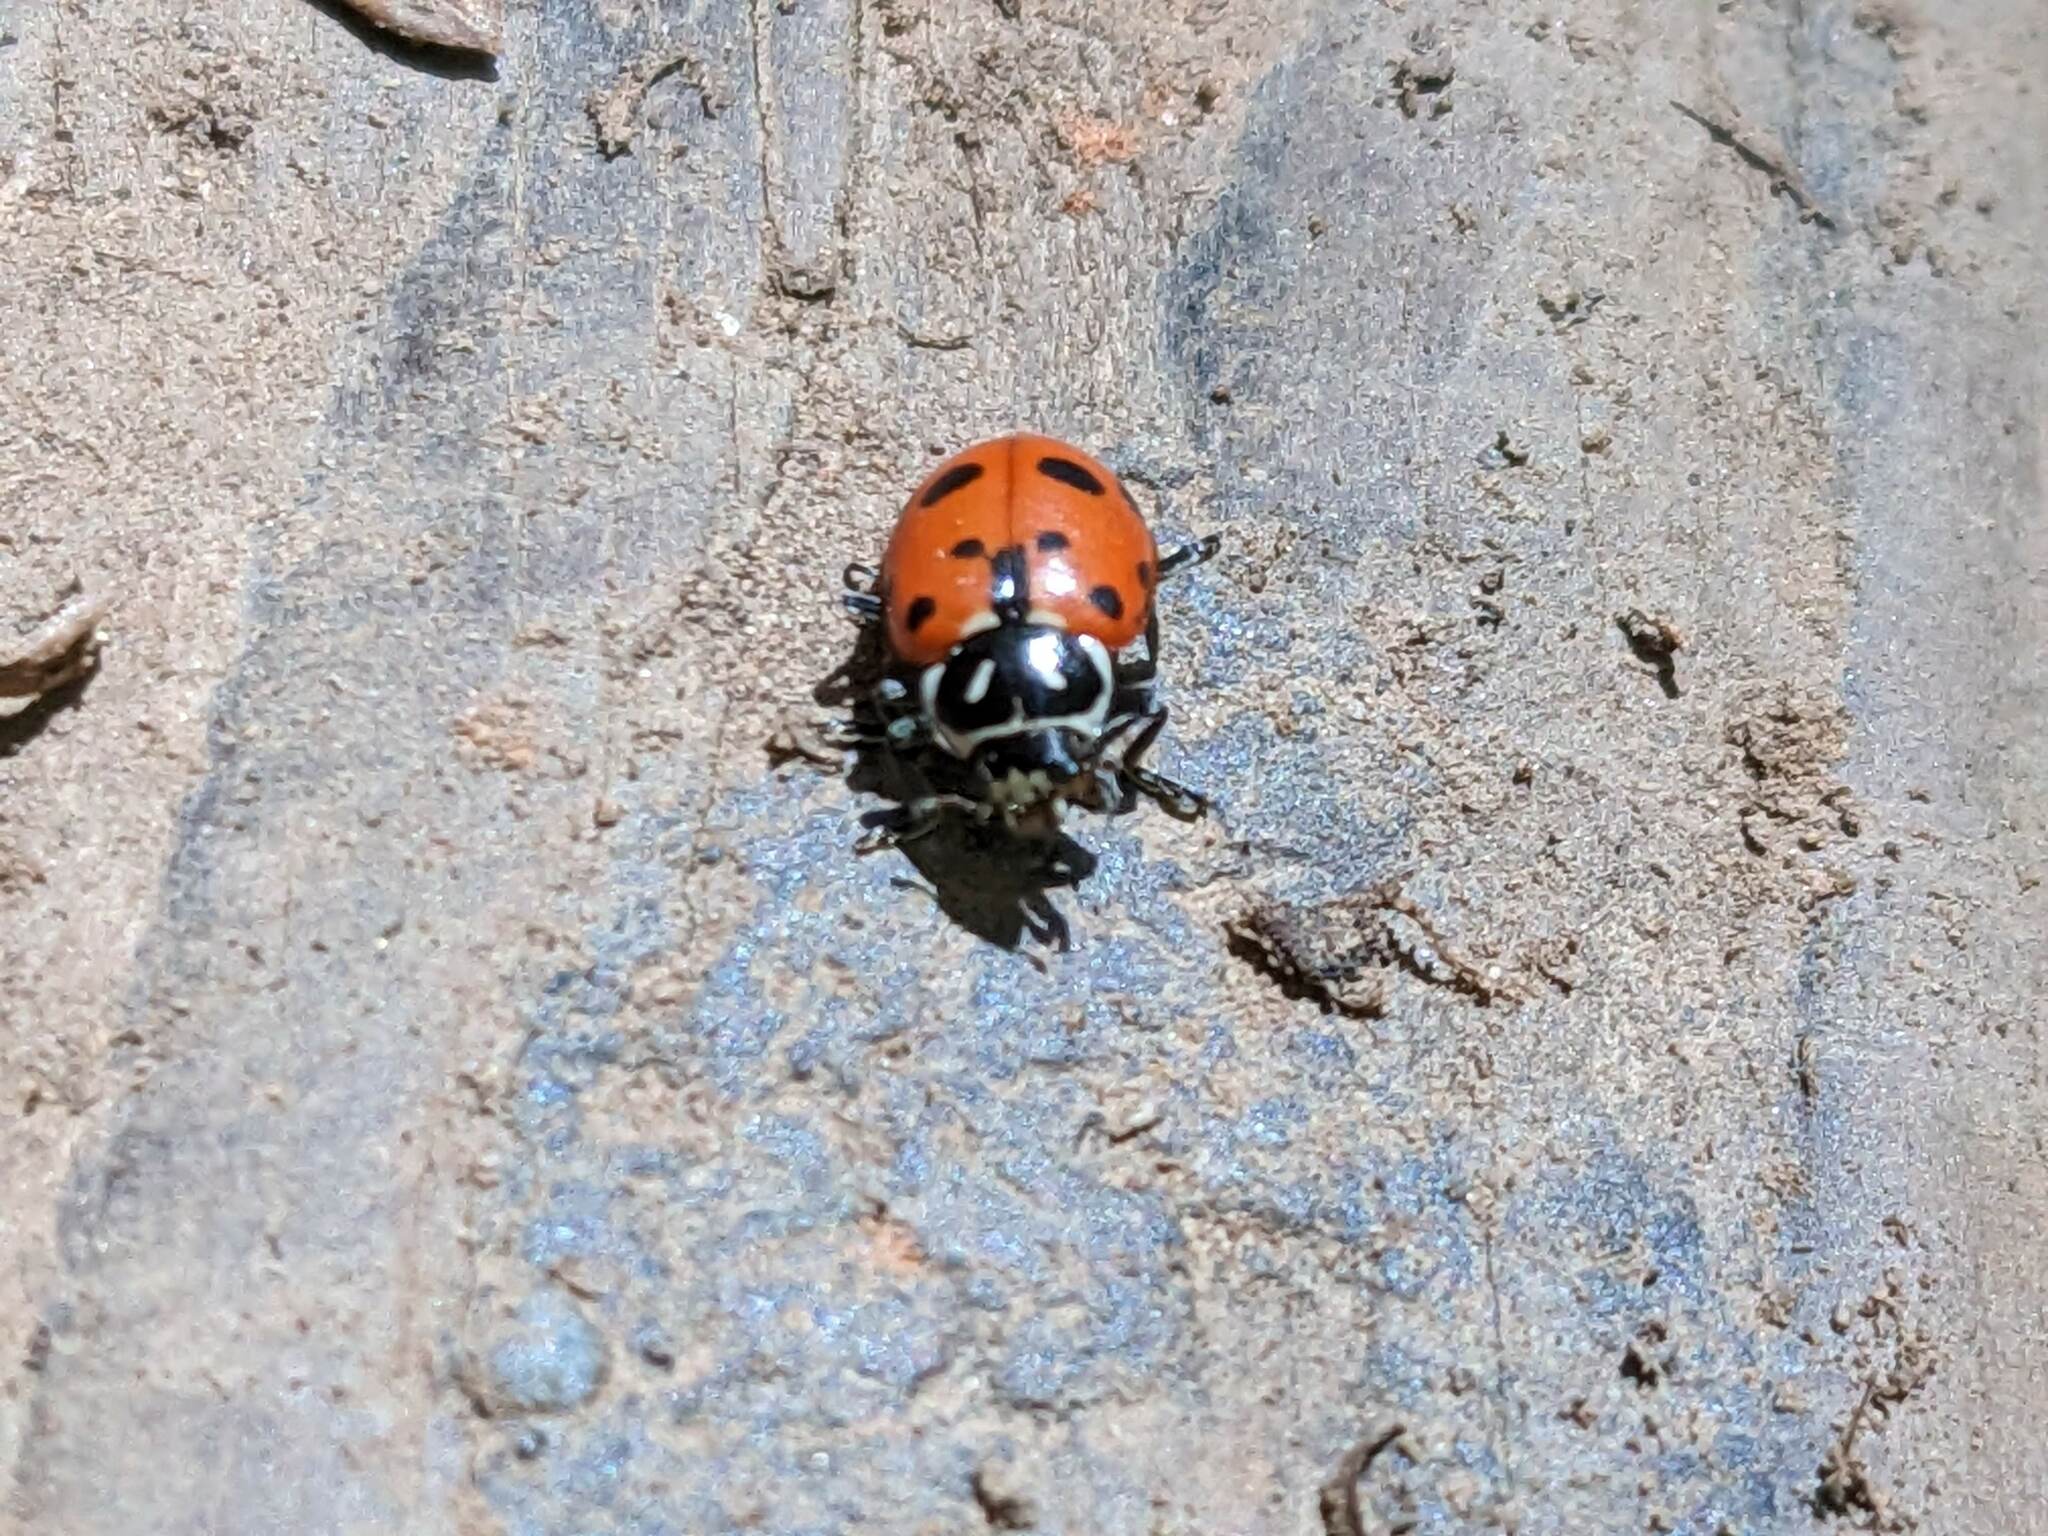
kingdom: Animalia
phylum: Arthropoda
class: Insecta
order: Coleoptera
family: Coccinellidae
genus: Hippodamia
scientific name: Hippodamia convergens
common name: Convergent lady beetle
